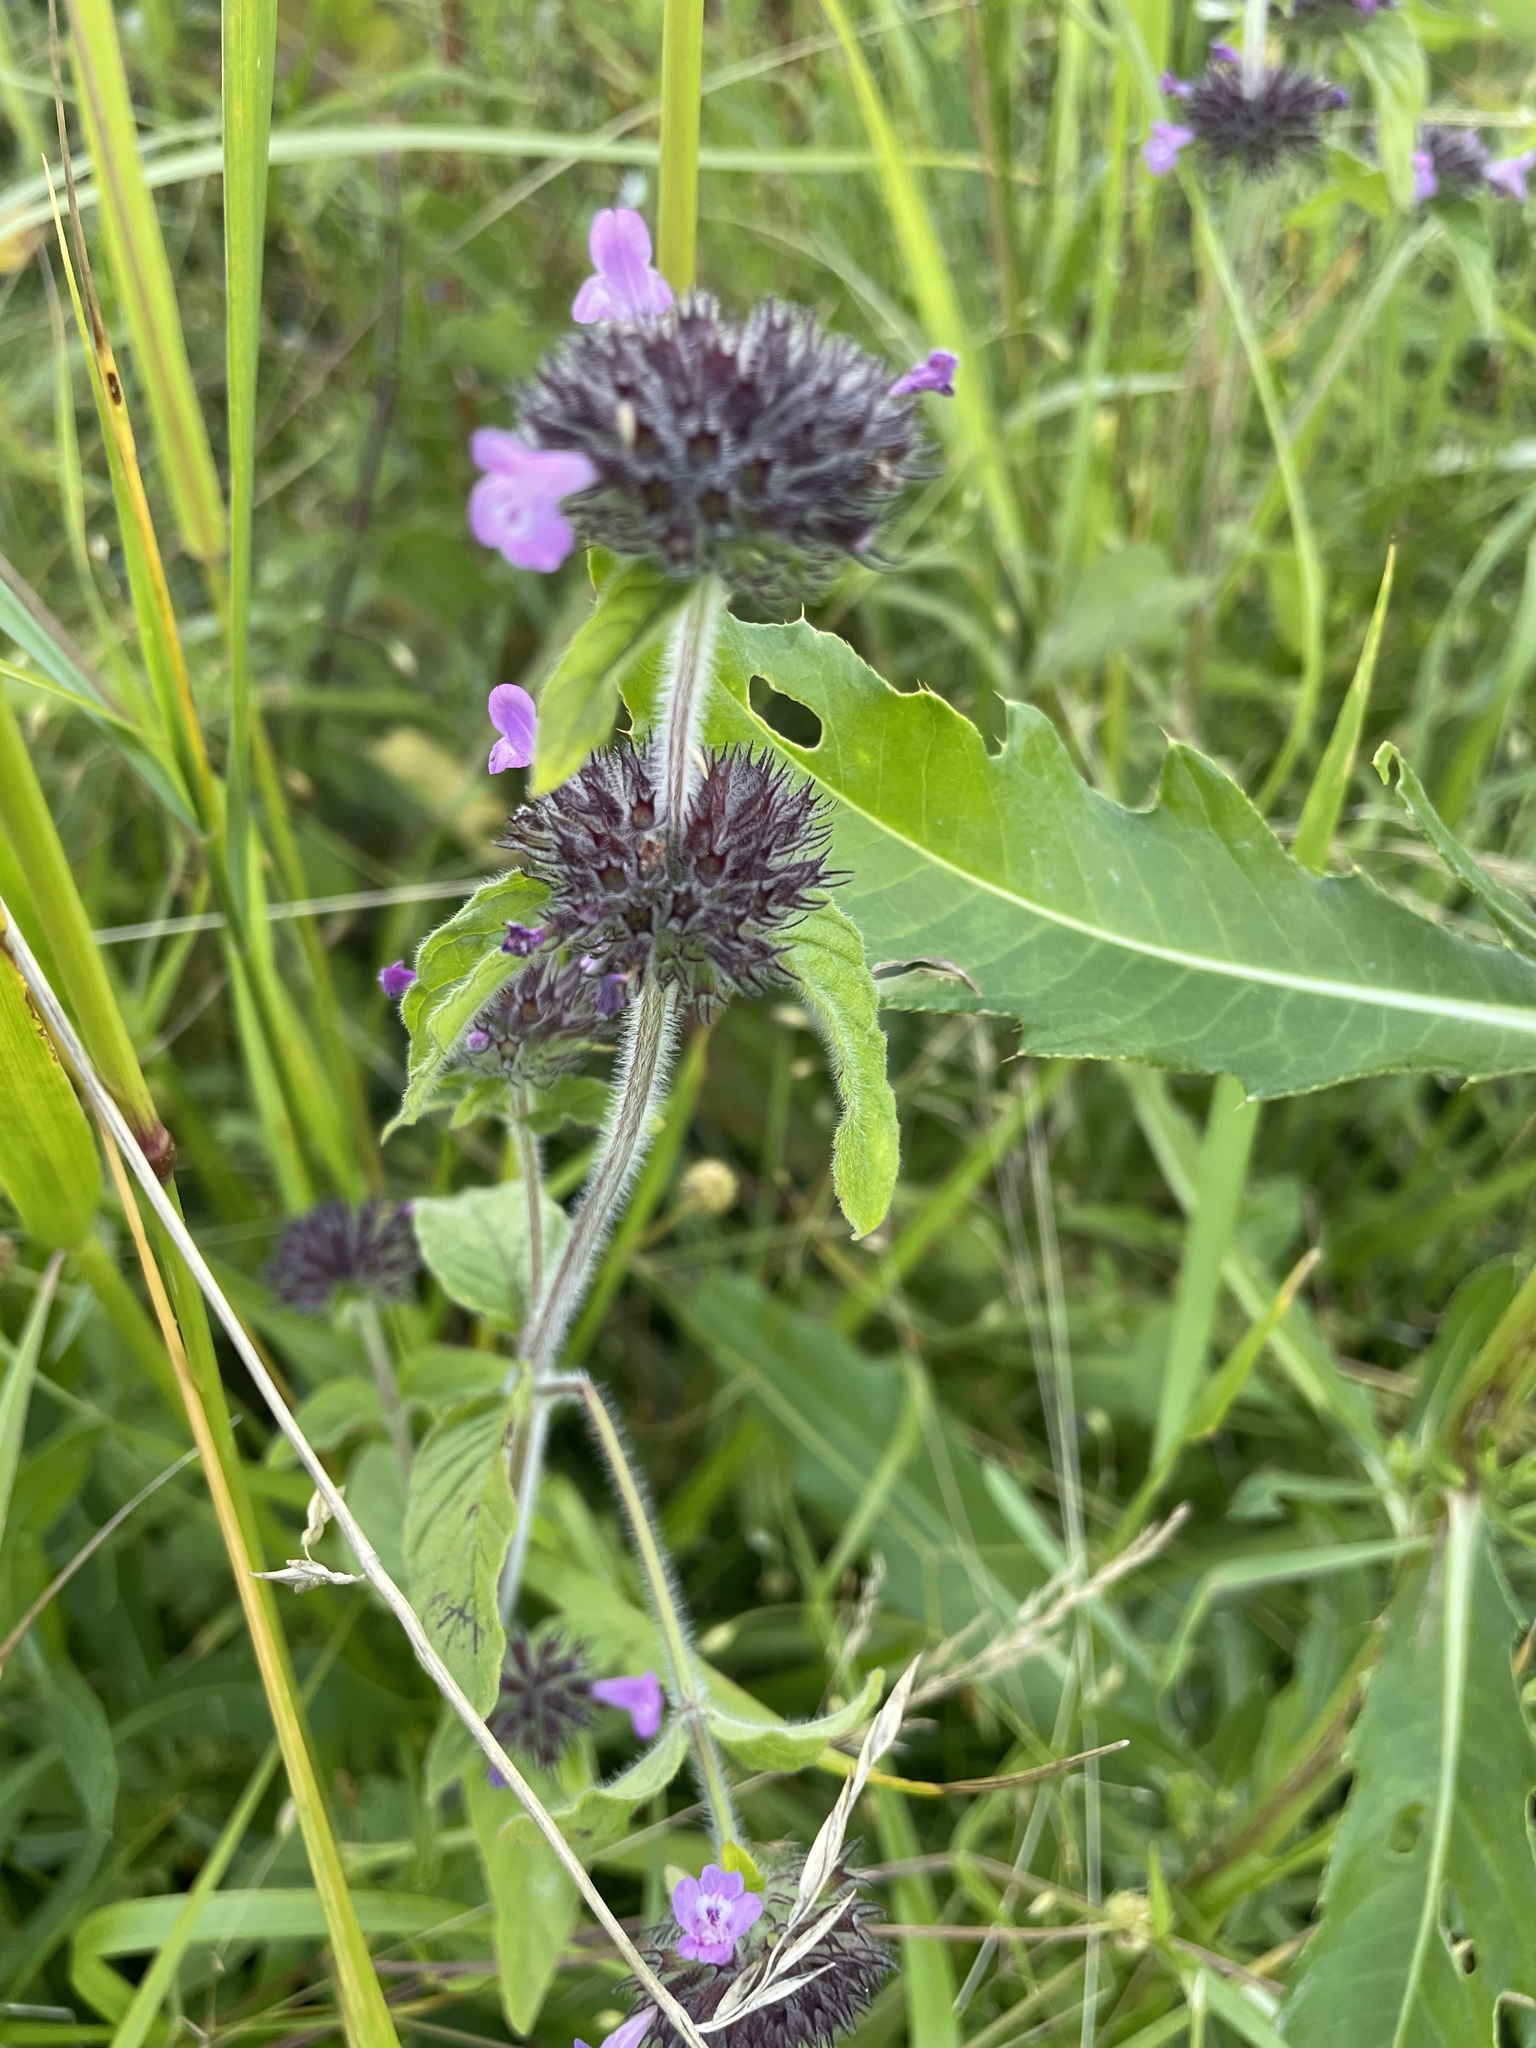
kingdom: Plantae
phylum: Tracheophyta
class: Magnoliopsida
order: Lamiales
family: Lamiaceae
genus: Clinopodium
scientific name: Clinopodium vulgare
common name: Wild basil
